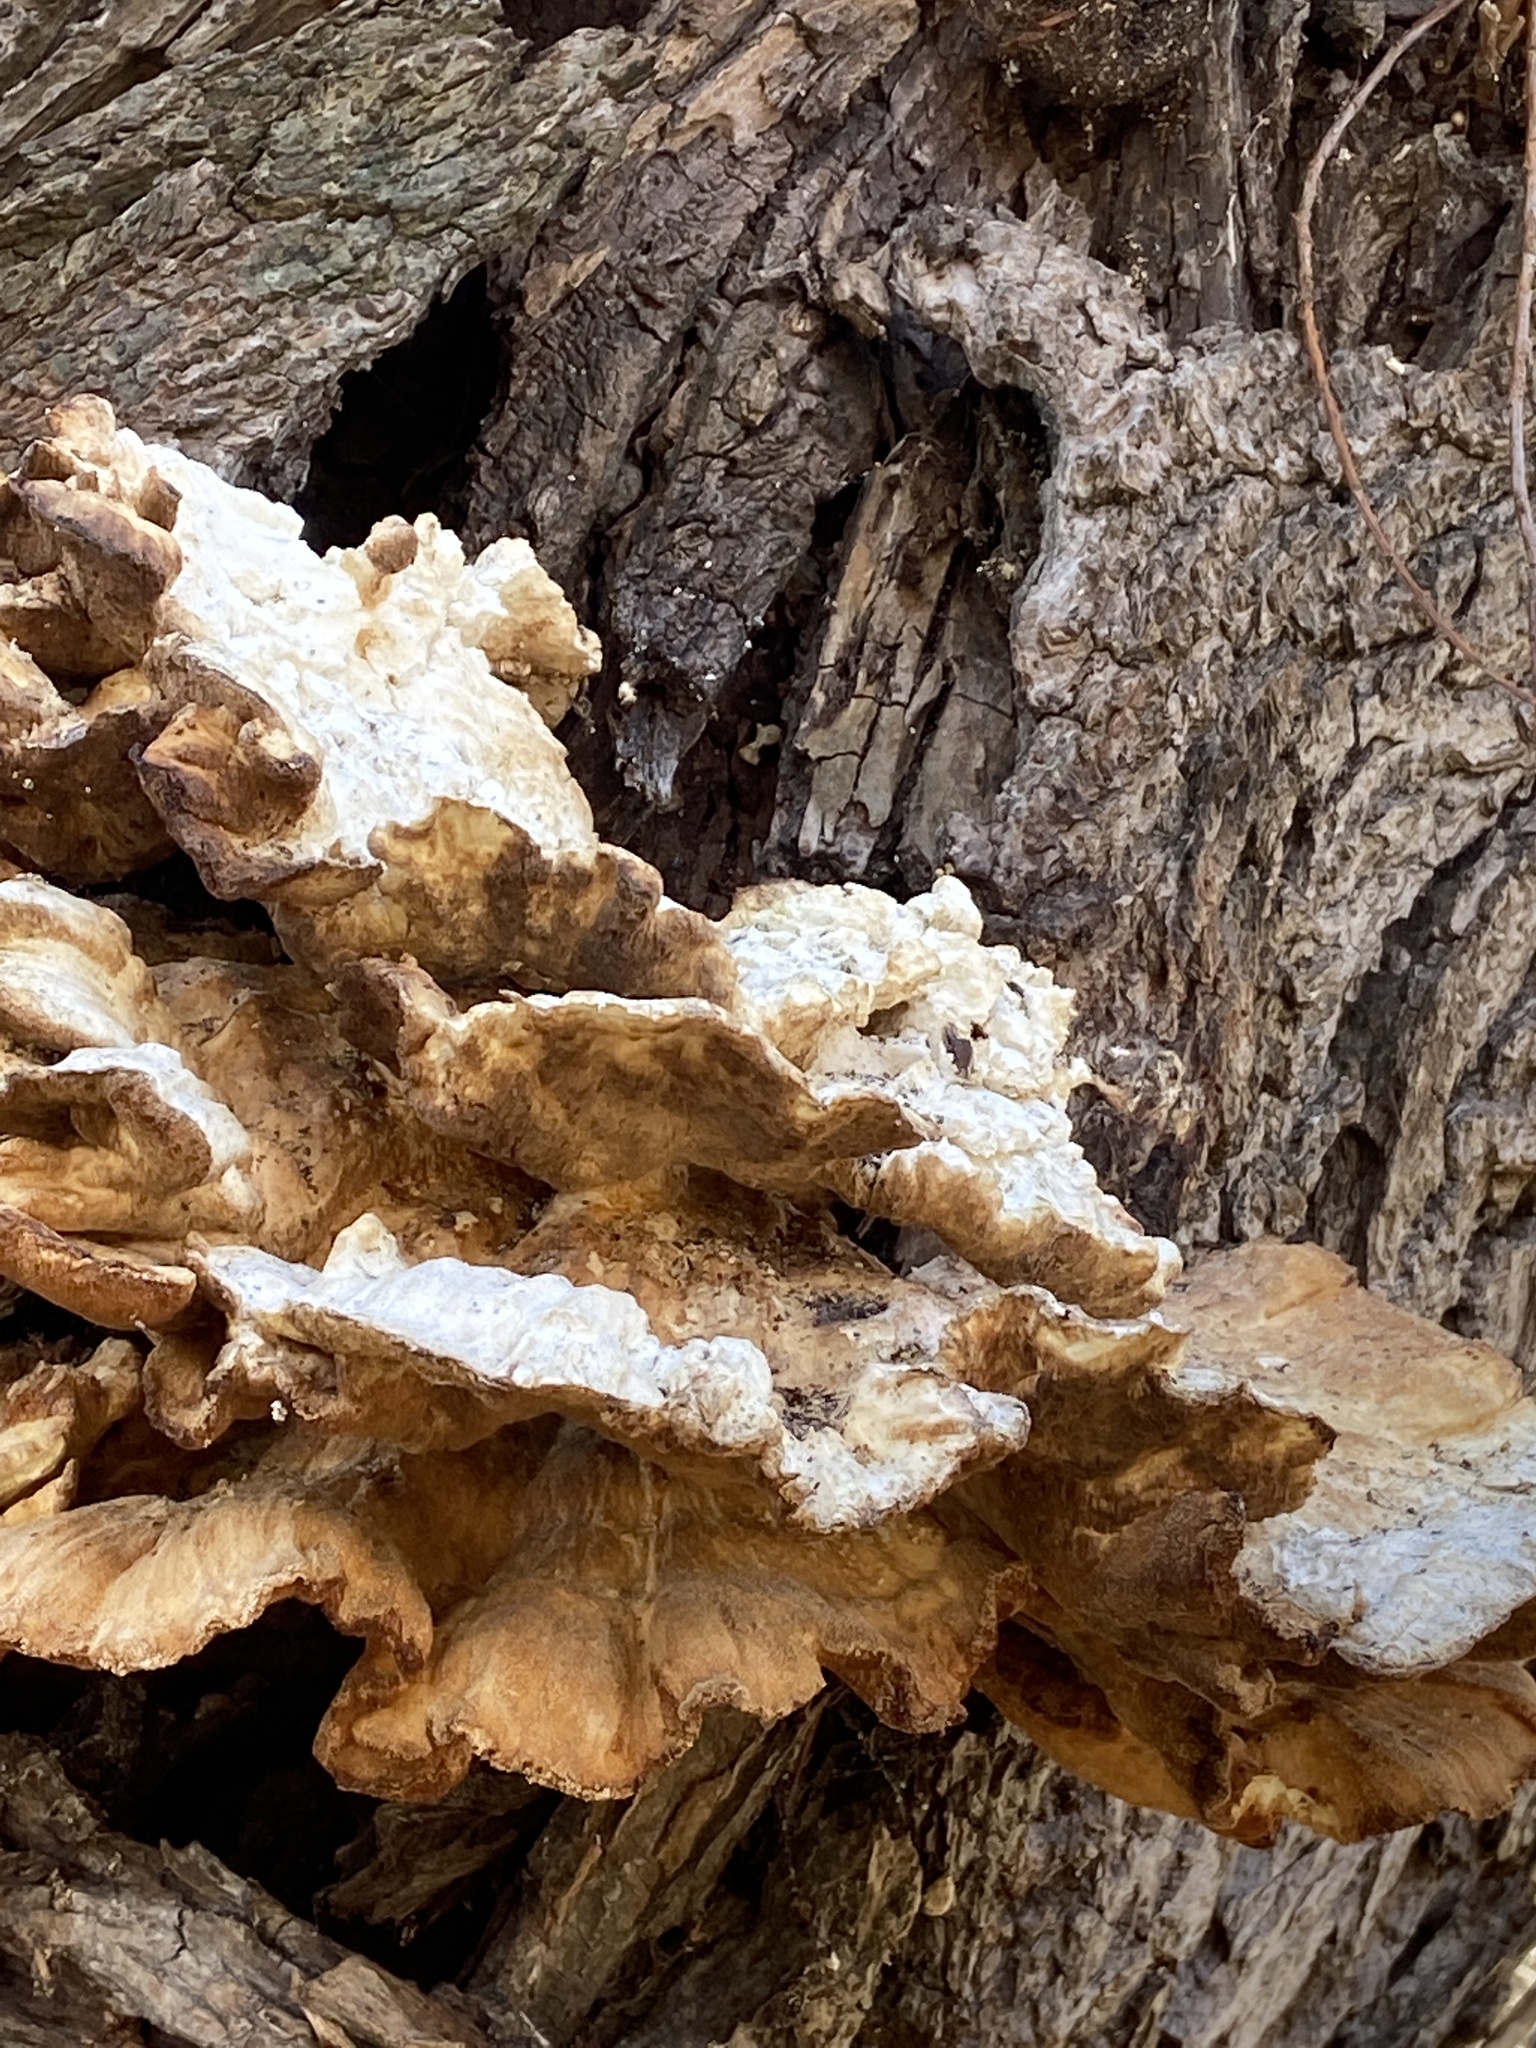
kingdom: Fungi
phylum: Basidiomycota
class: Agaricomycetes
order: Polyporales
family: Laetiporaceae
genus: Laetiporus
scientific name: Laetiporus sulphureus
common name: Chicken of the woods
